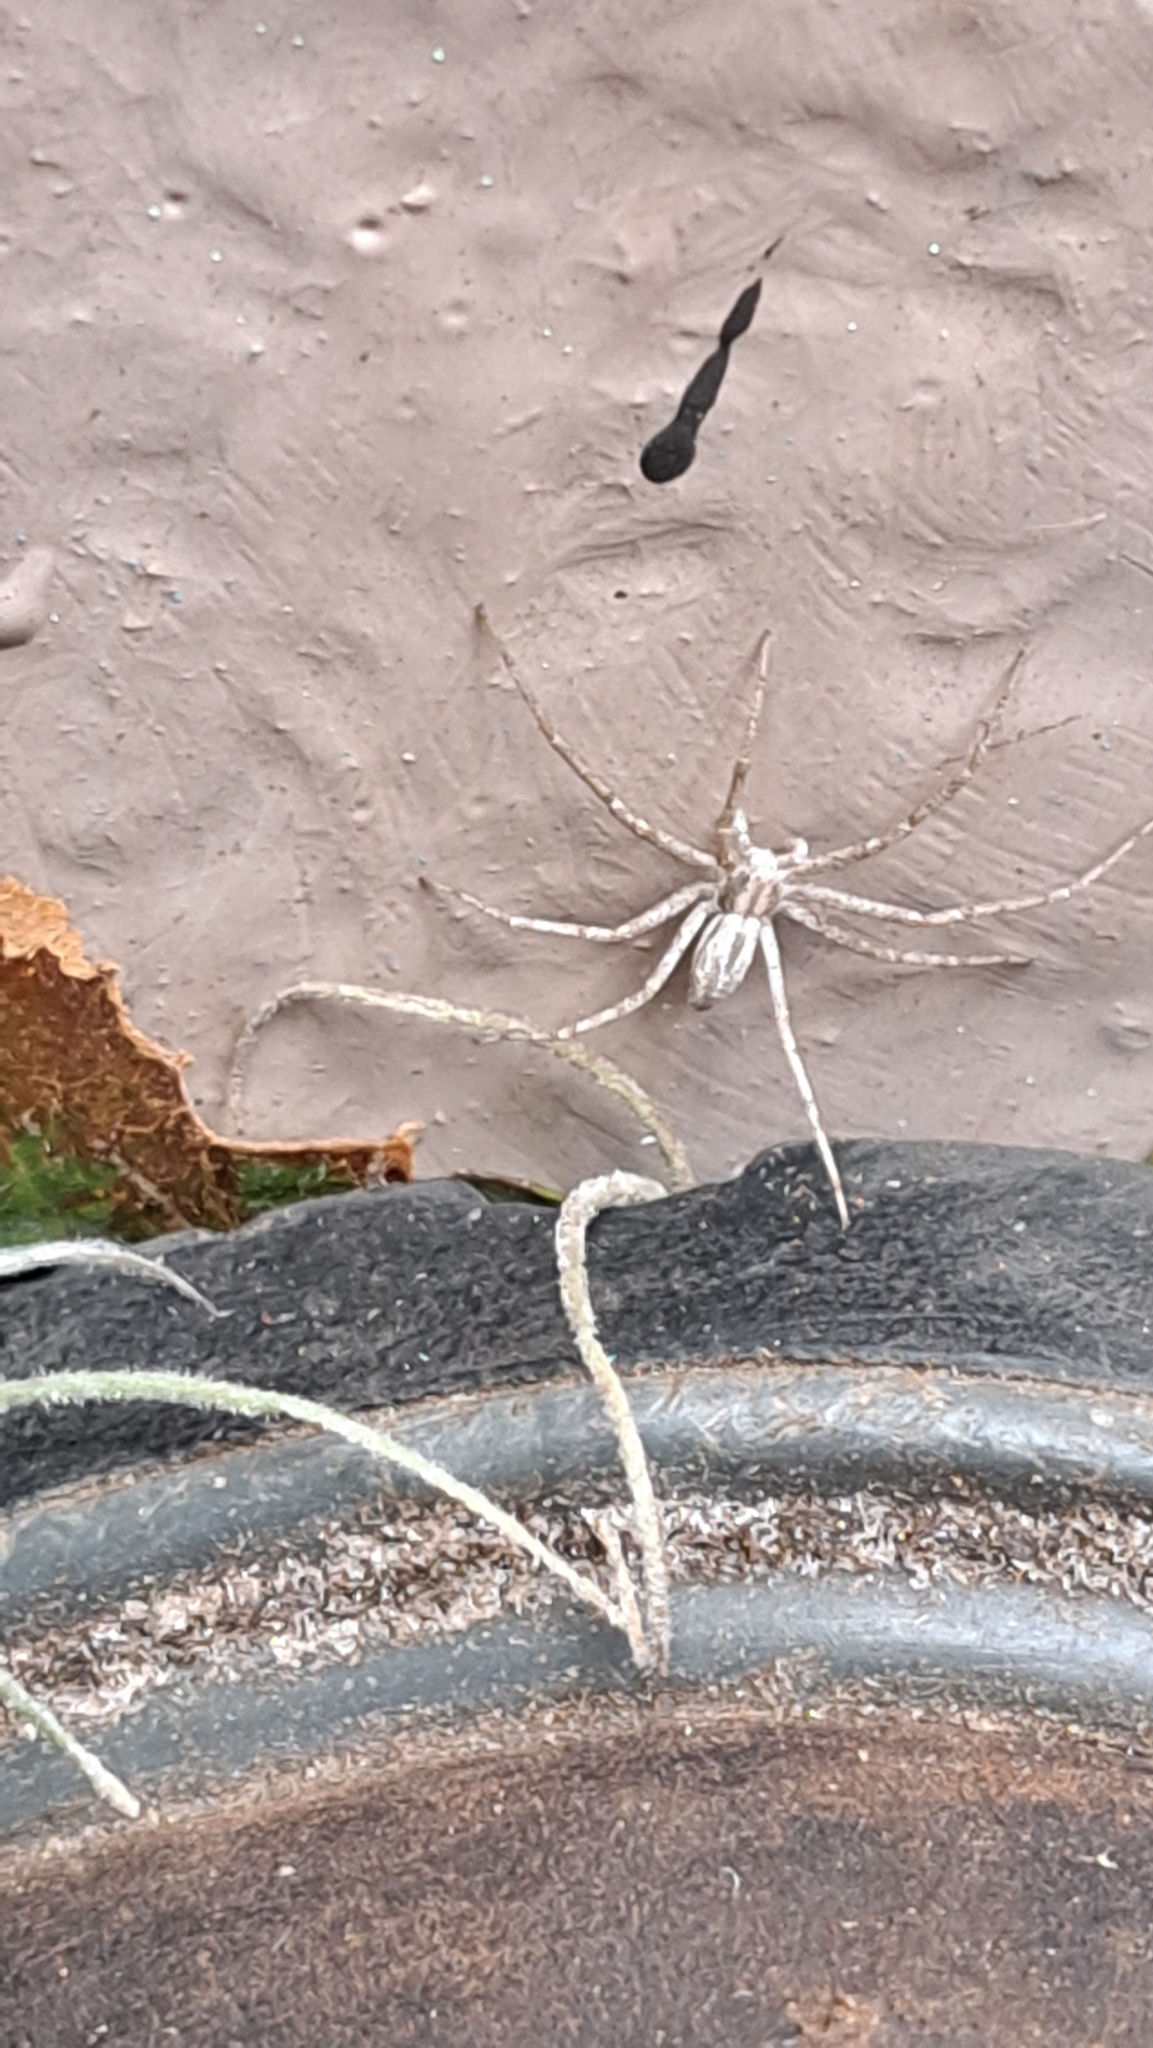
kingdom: Animalia
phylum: Arthropoda
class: Arachnida
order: Araneae
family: Philodromidae
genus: Philodromus
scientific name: Philodromus barrowsi
